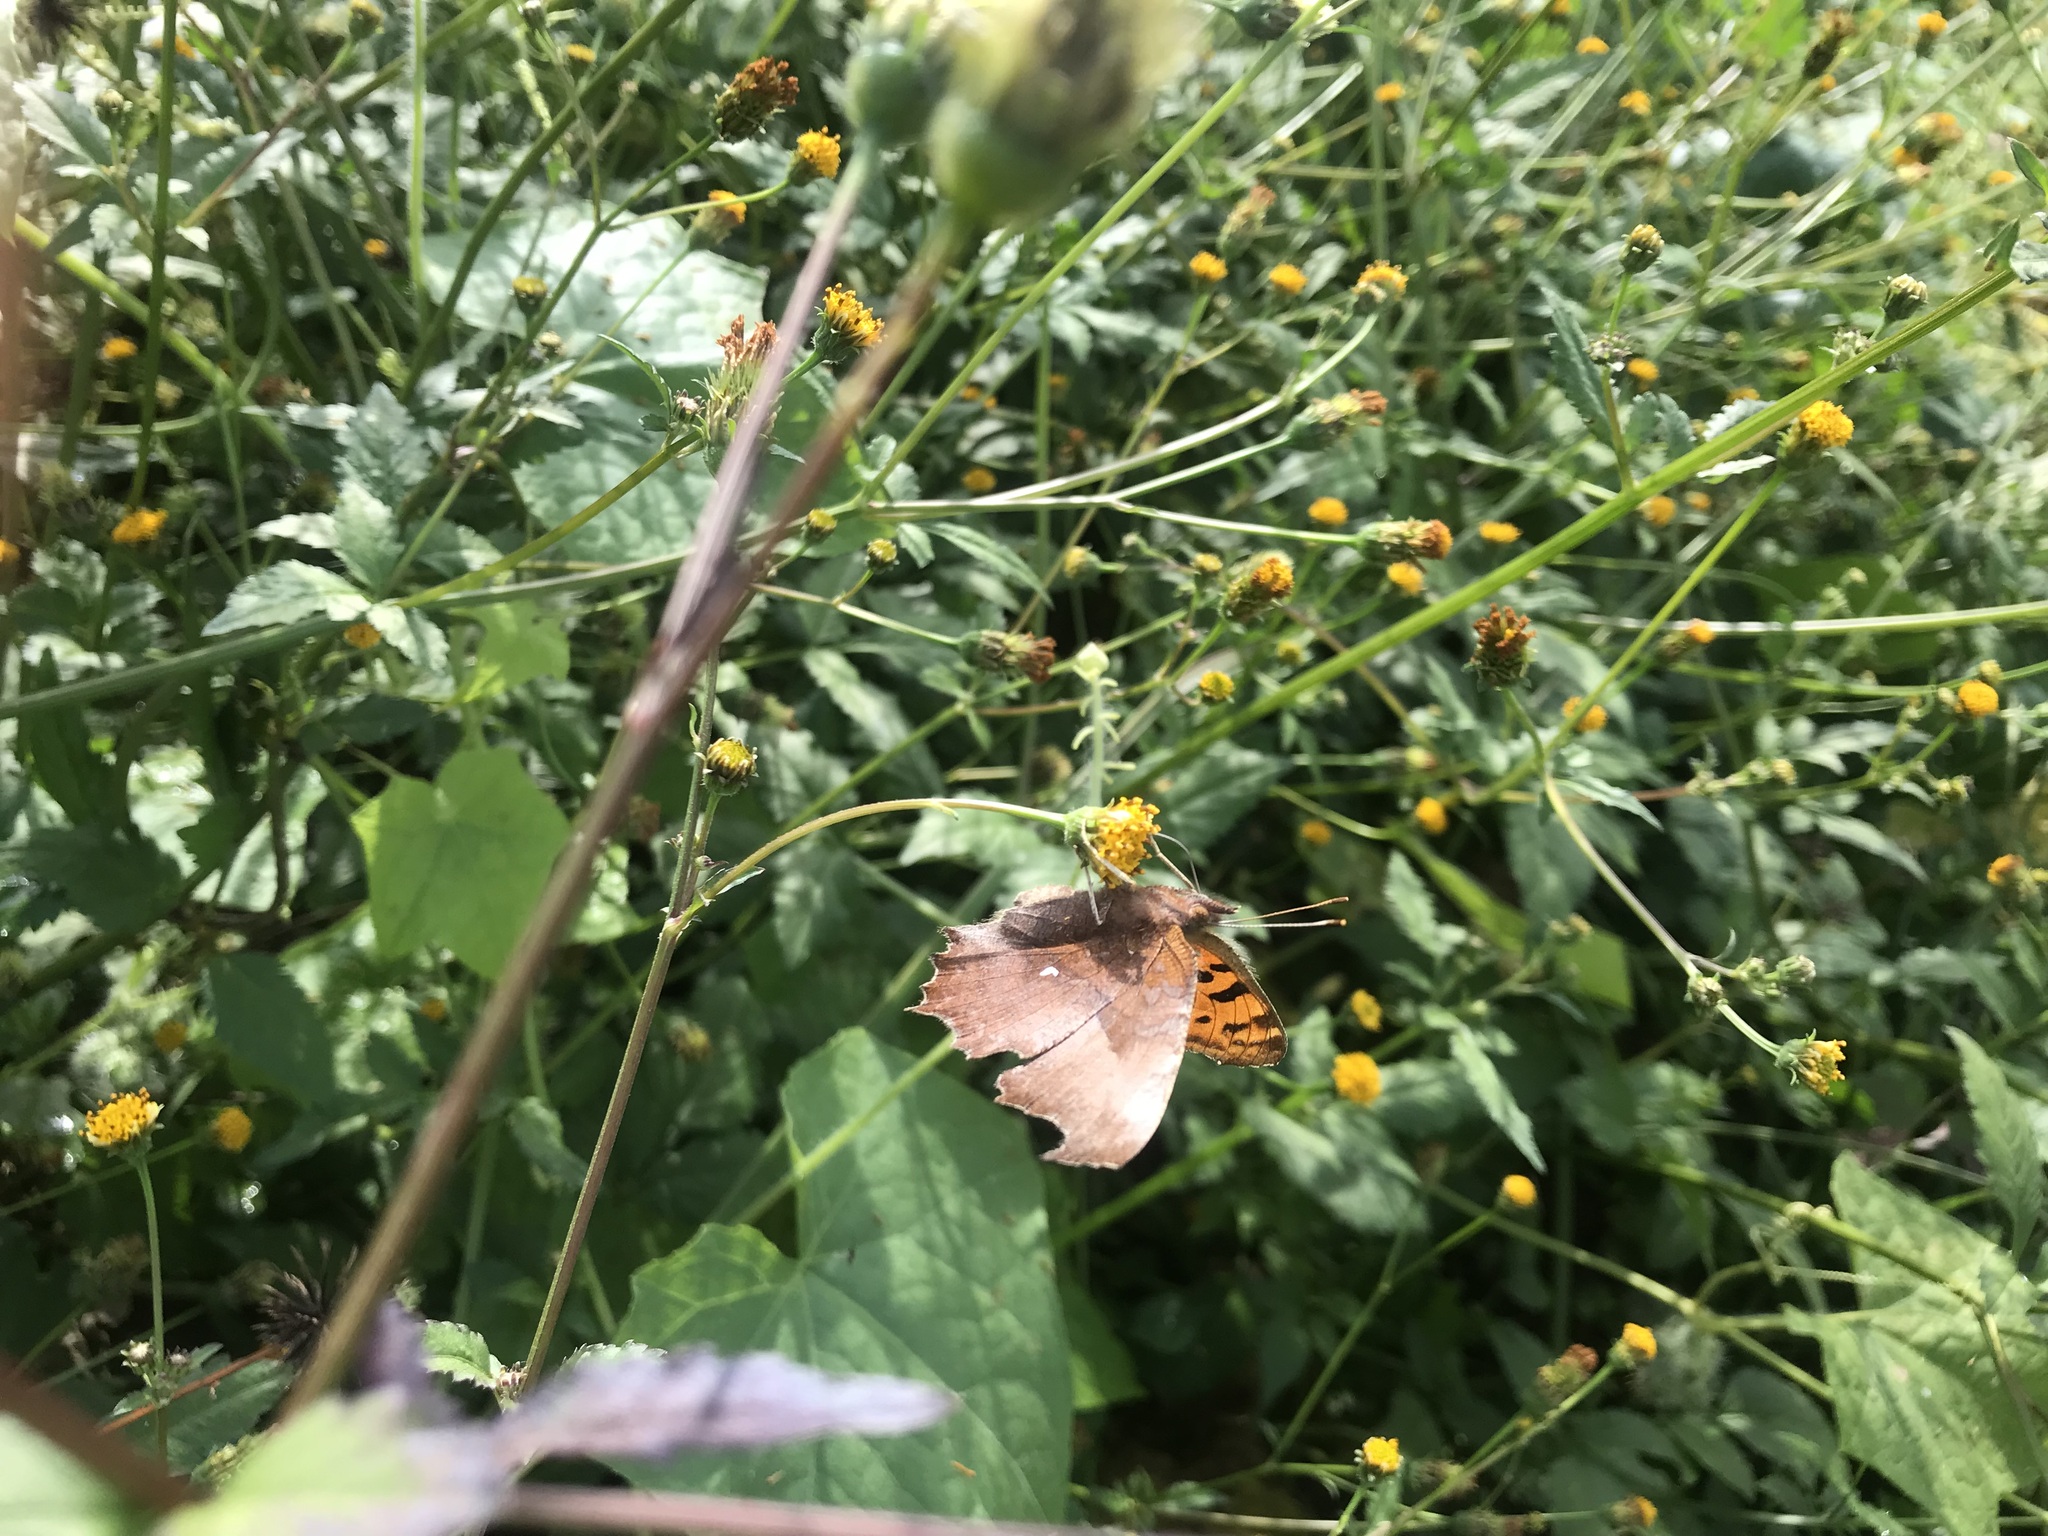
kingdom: Animalia
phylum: Arthropoda
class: Insecta
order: Lepidoptera
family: Nymphalidae
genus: Polygonia
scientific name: Polygonia c-aureum
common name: Asian comma
